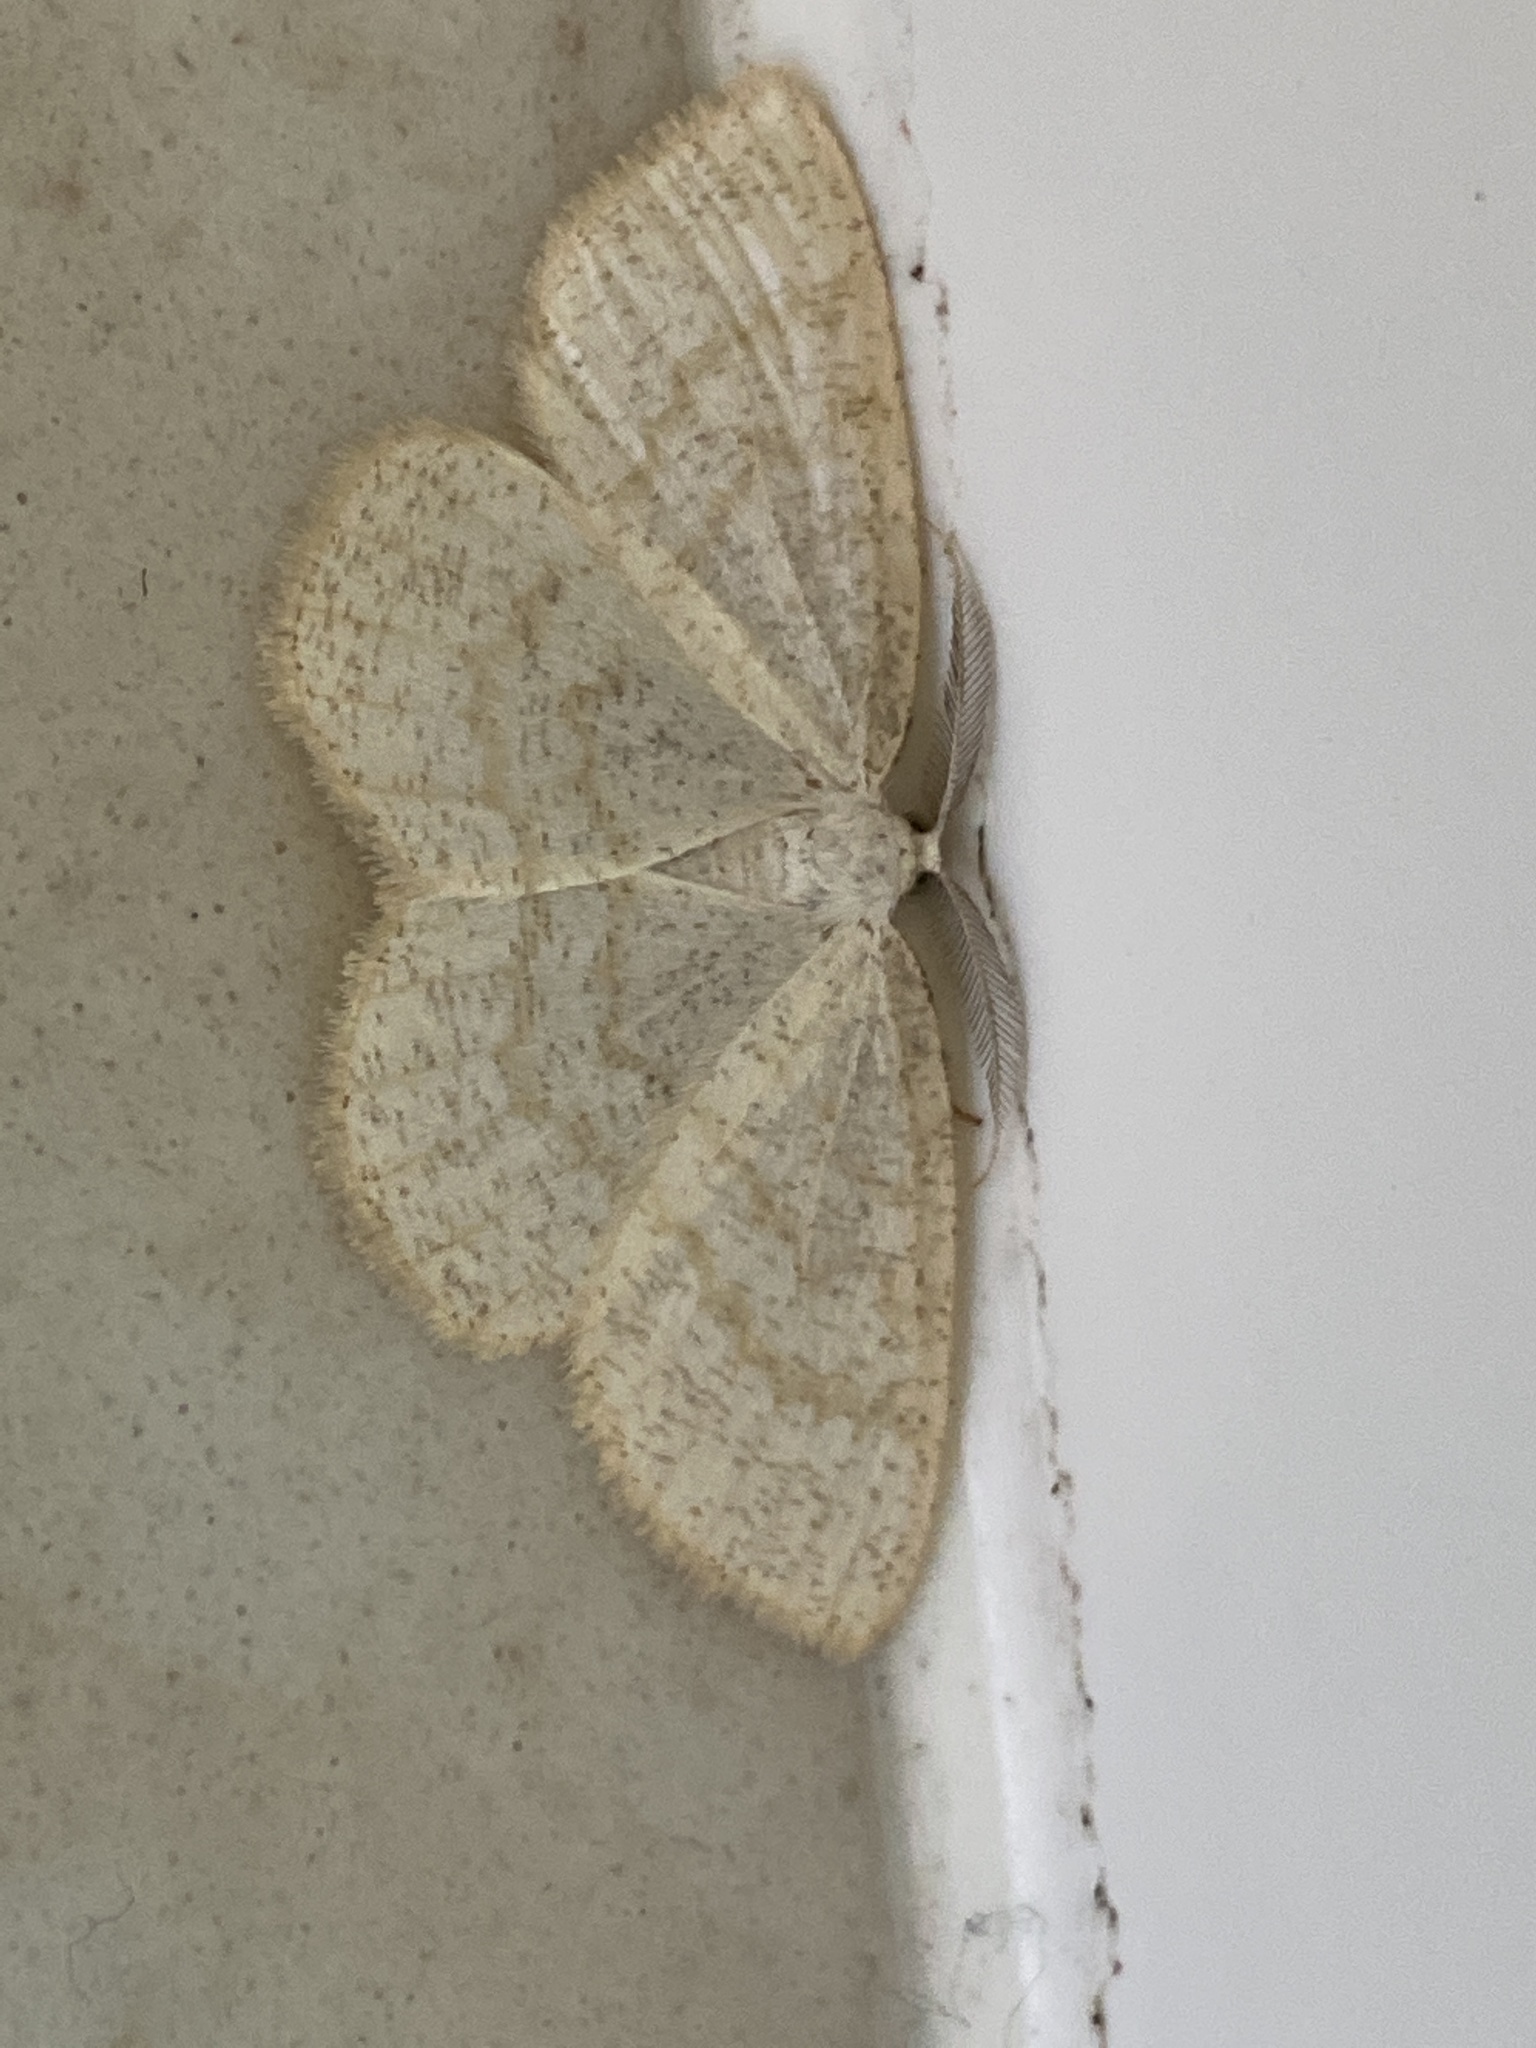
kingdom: Animalia
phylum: Arthropoda
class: Insecta
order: Lepidoptera
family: Geometridae
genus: Cabera
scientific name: Cabera exanthemata
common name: Common wave
